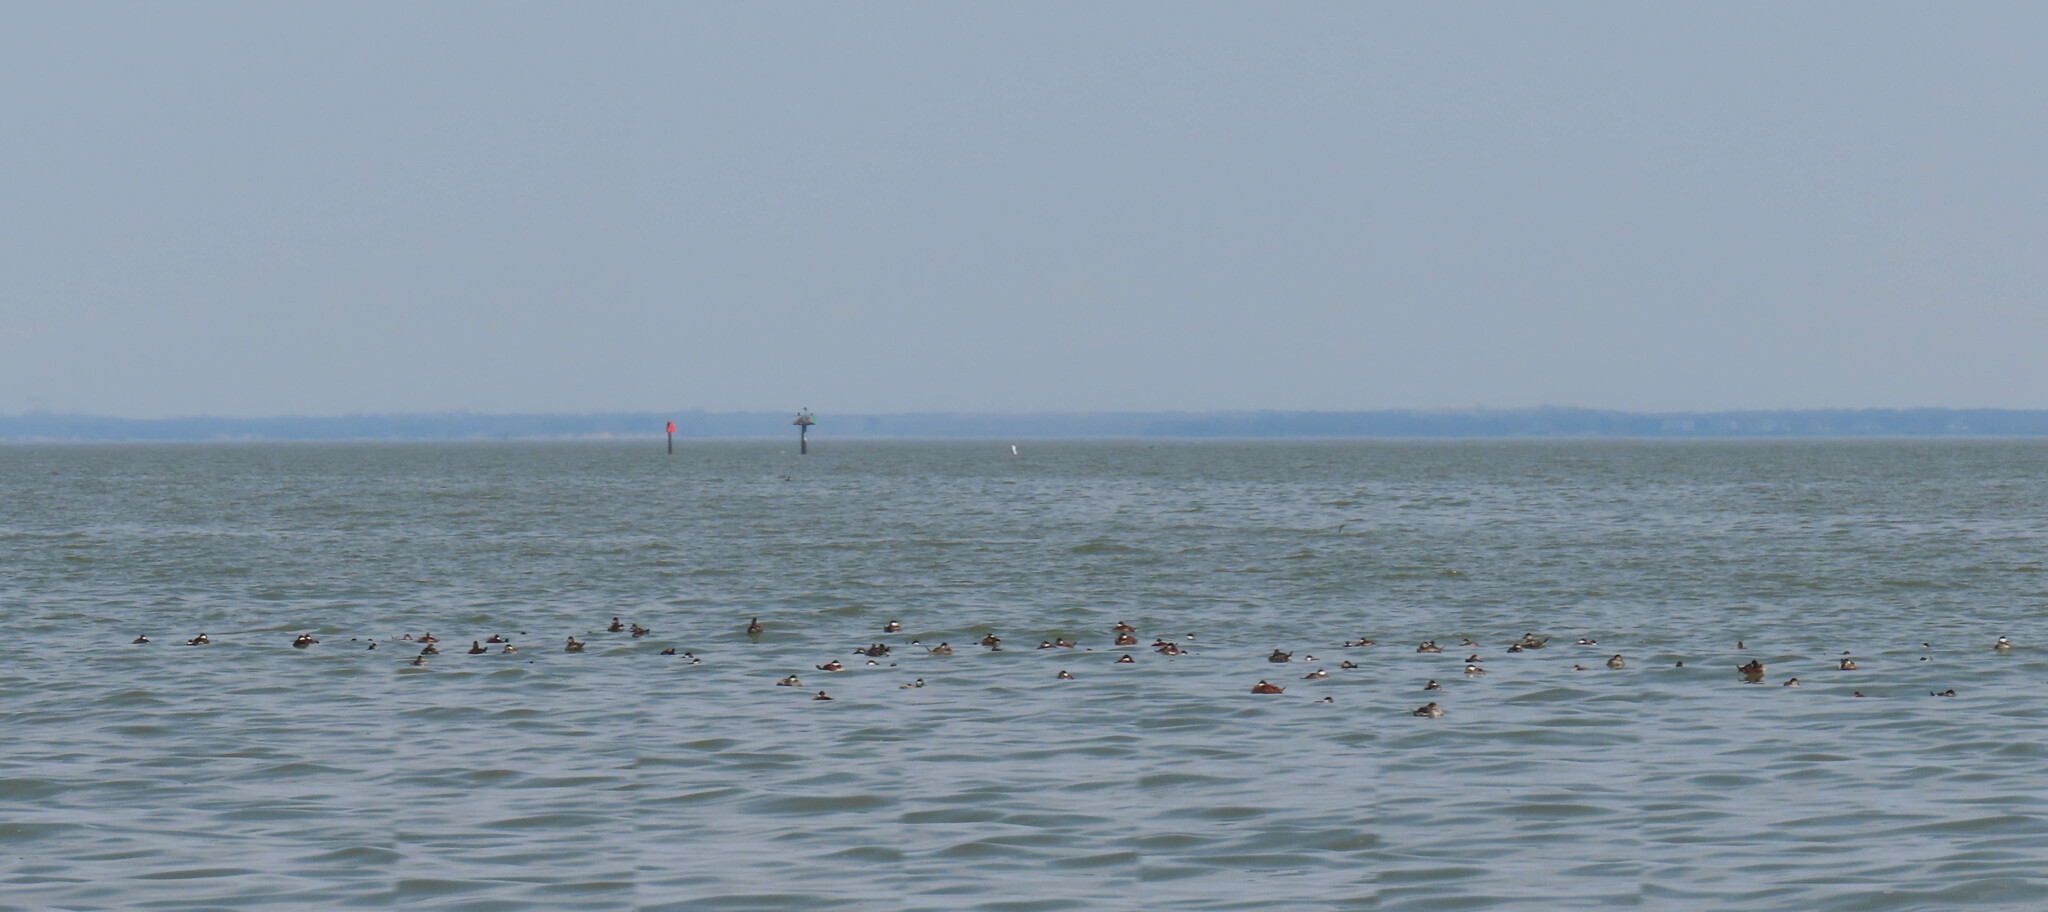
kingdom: Animalia
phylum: Chordata
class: Aves
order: Anseriformes
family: Anatidae
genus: Oxyura
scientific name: Oxyura jamaicensis
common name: Ruddy duck
